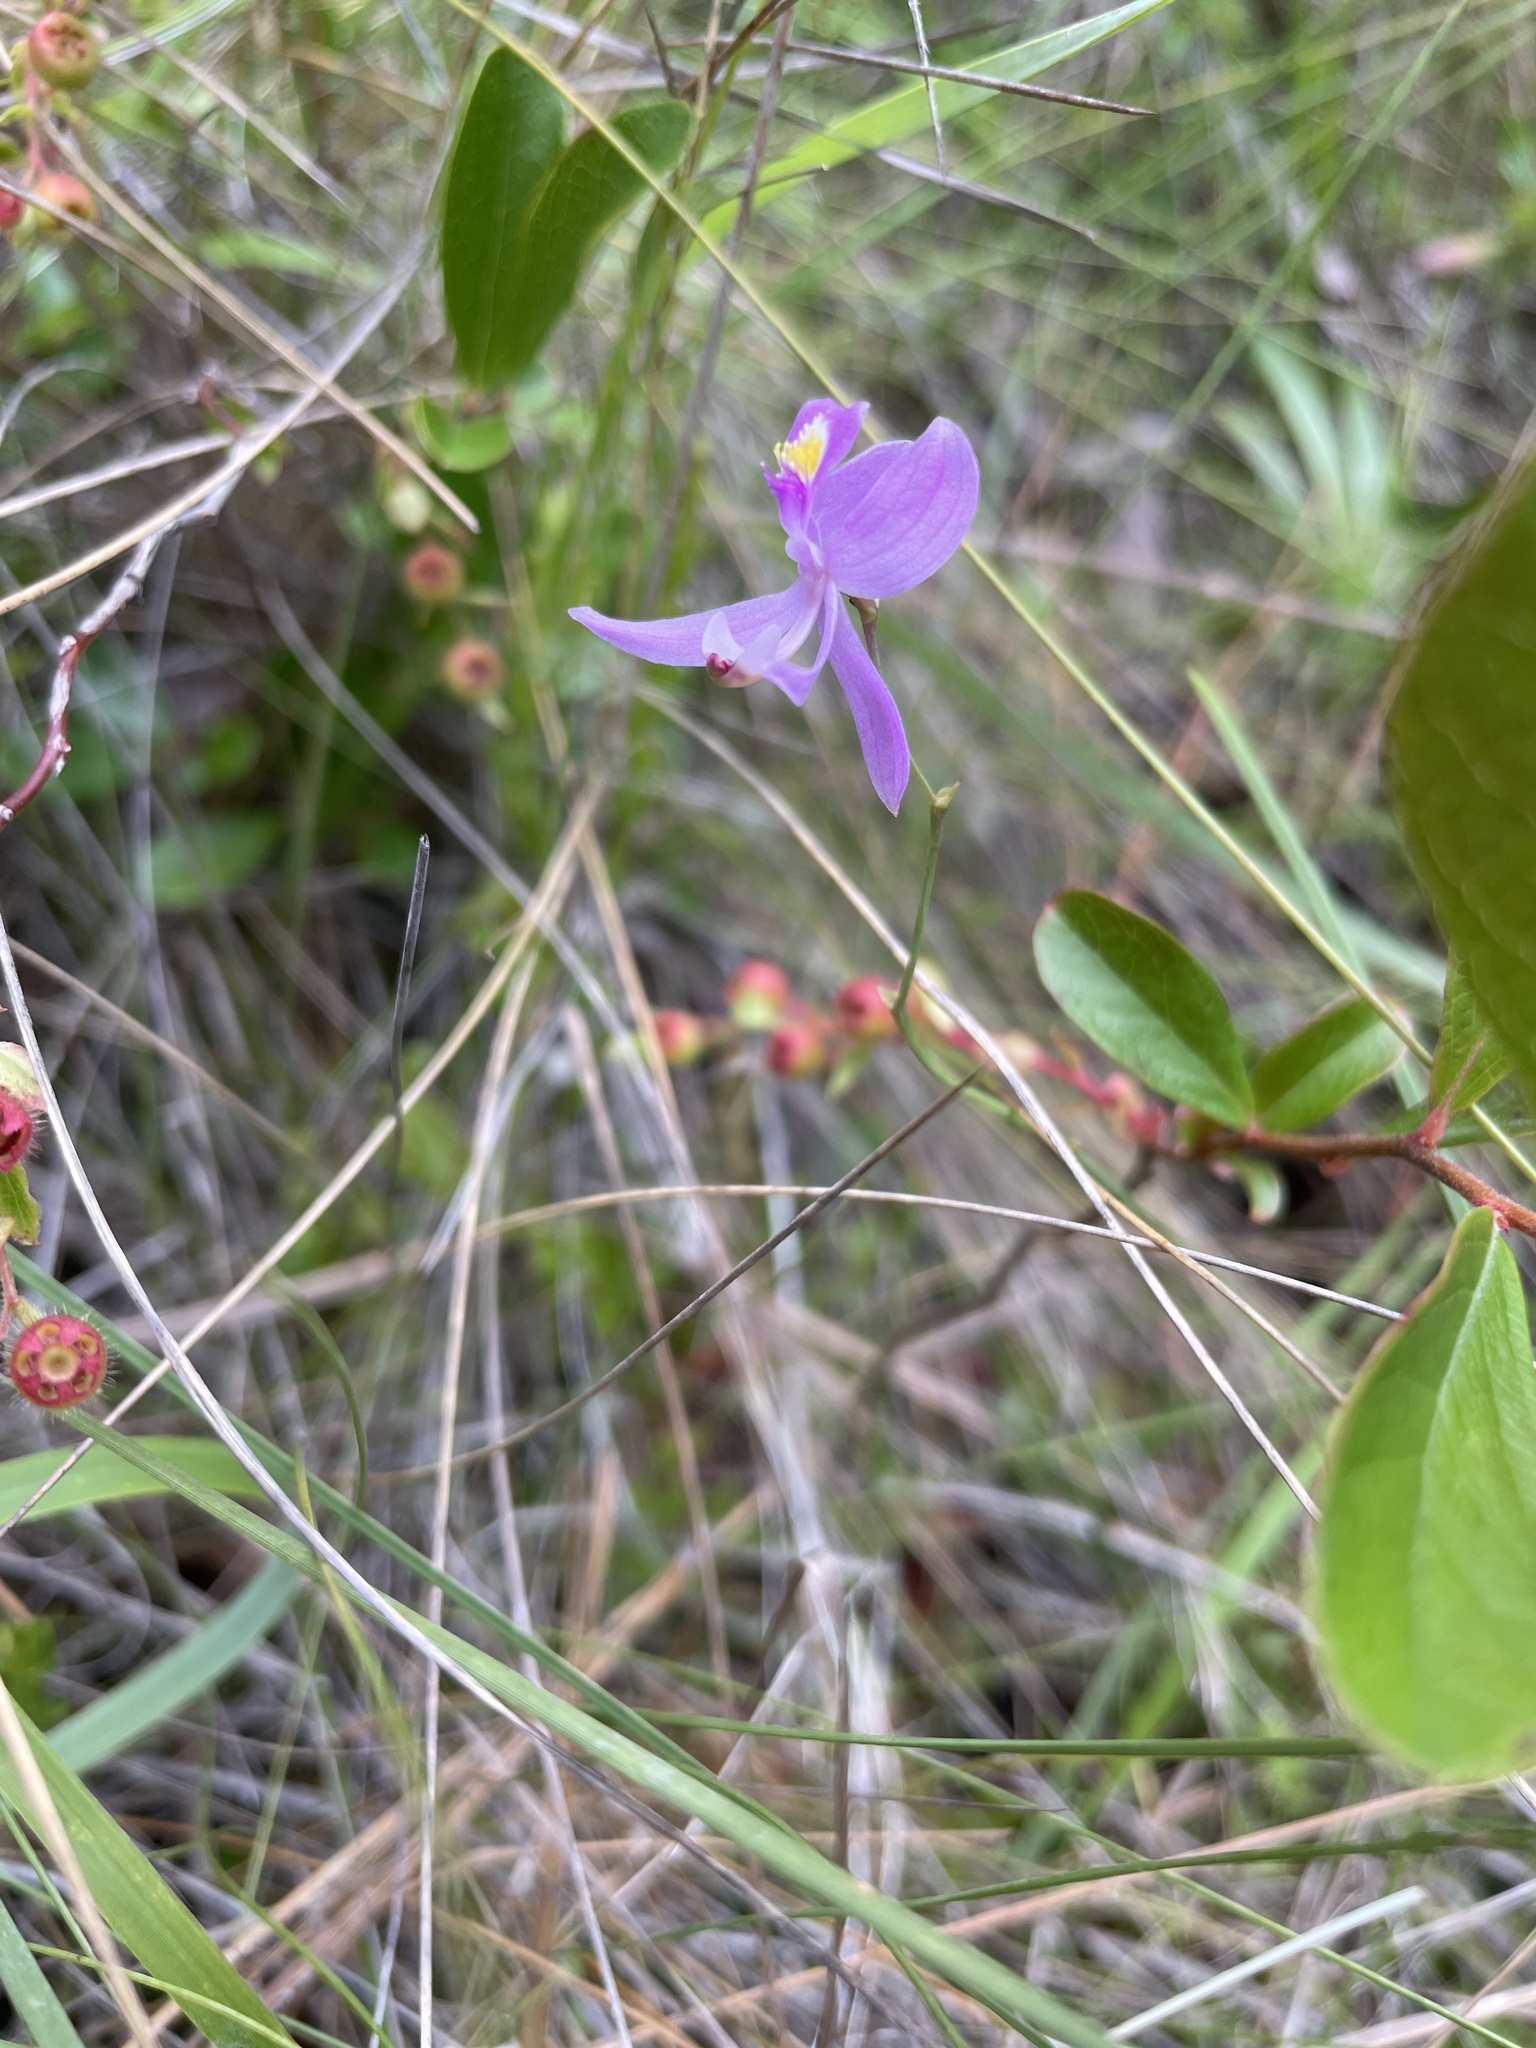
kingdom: Plantae
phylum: Tracheophyta
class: Liliopsida
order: Asparagales
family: Orchidaceae
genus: Calopogon
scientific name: Calopogon pallidus
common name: Pale grasspink
